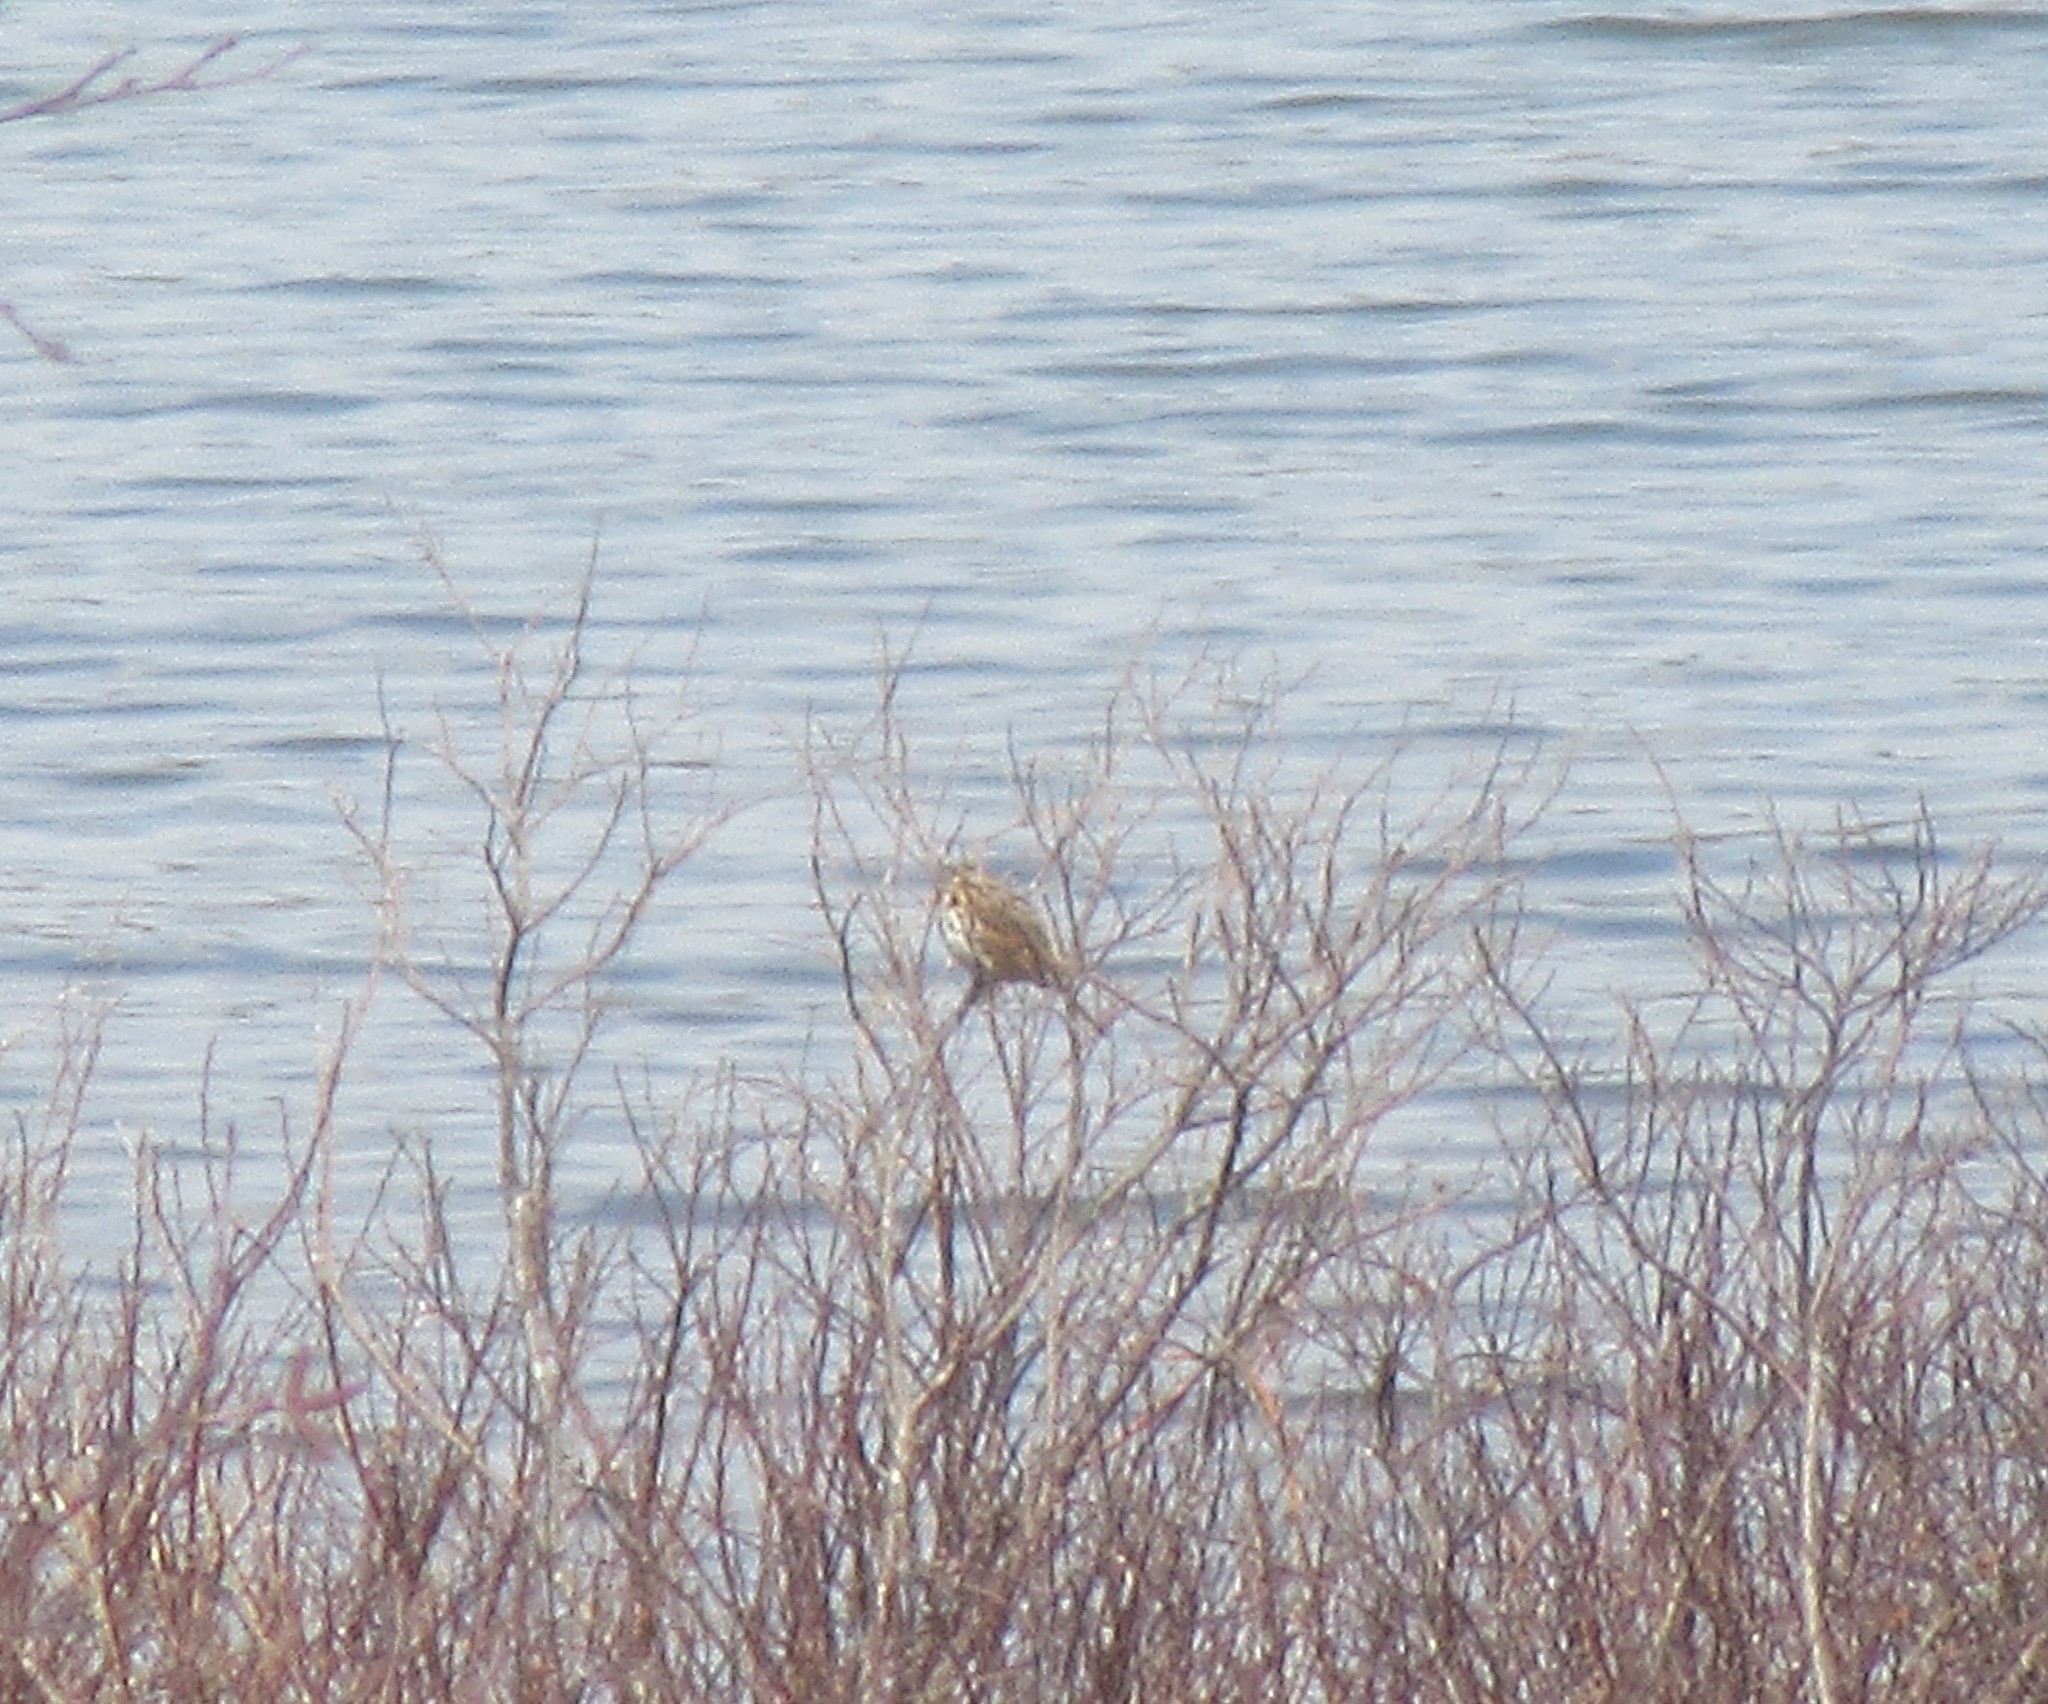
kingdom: Animalia
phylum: Chordata
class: Aves
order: Passeriformes
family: Passerellidae
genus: Melospiza
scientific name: Melospiza melodia
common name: Song sparrow
